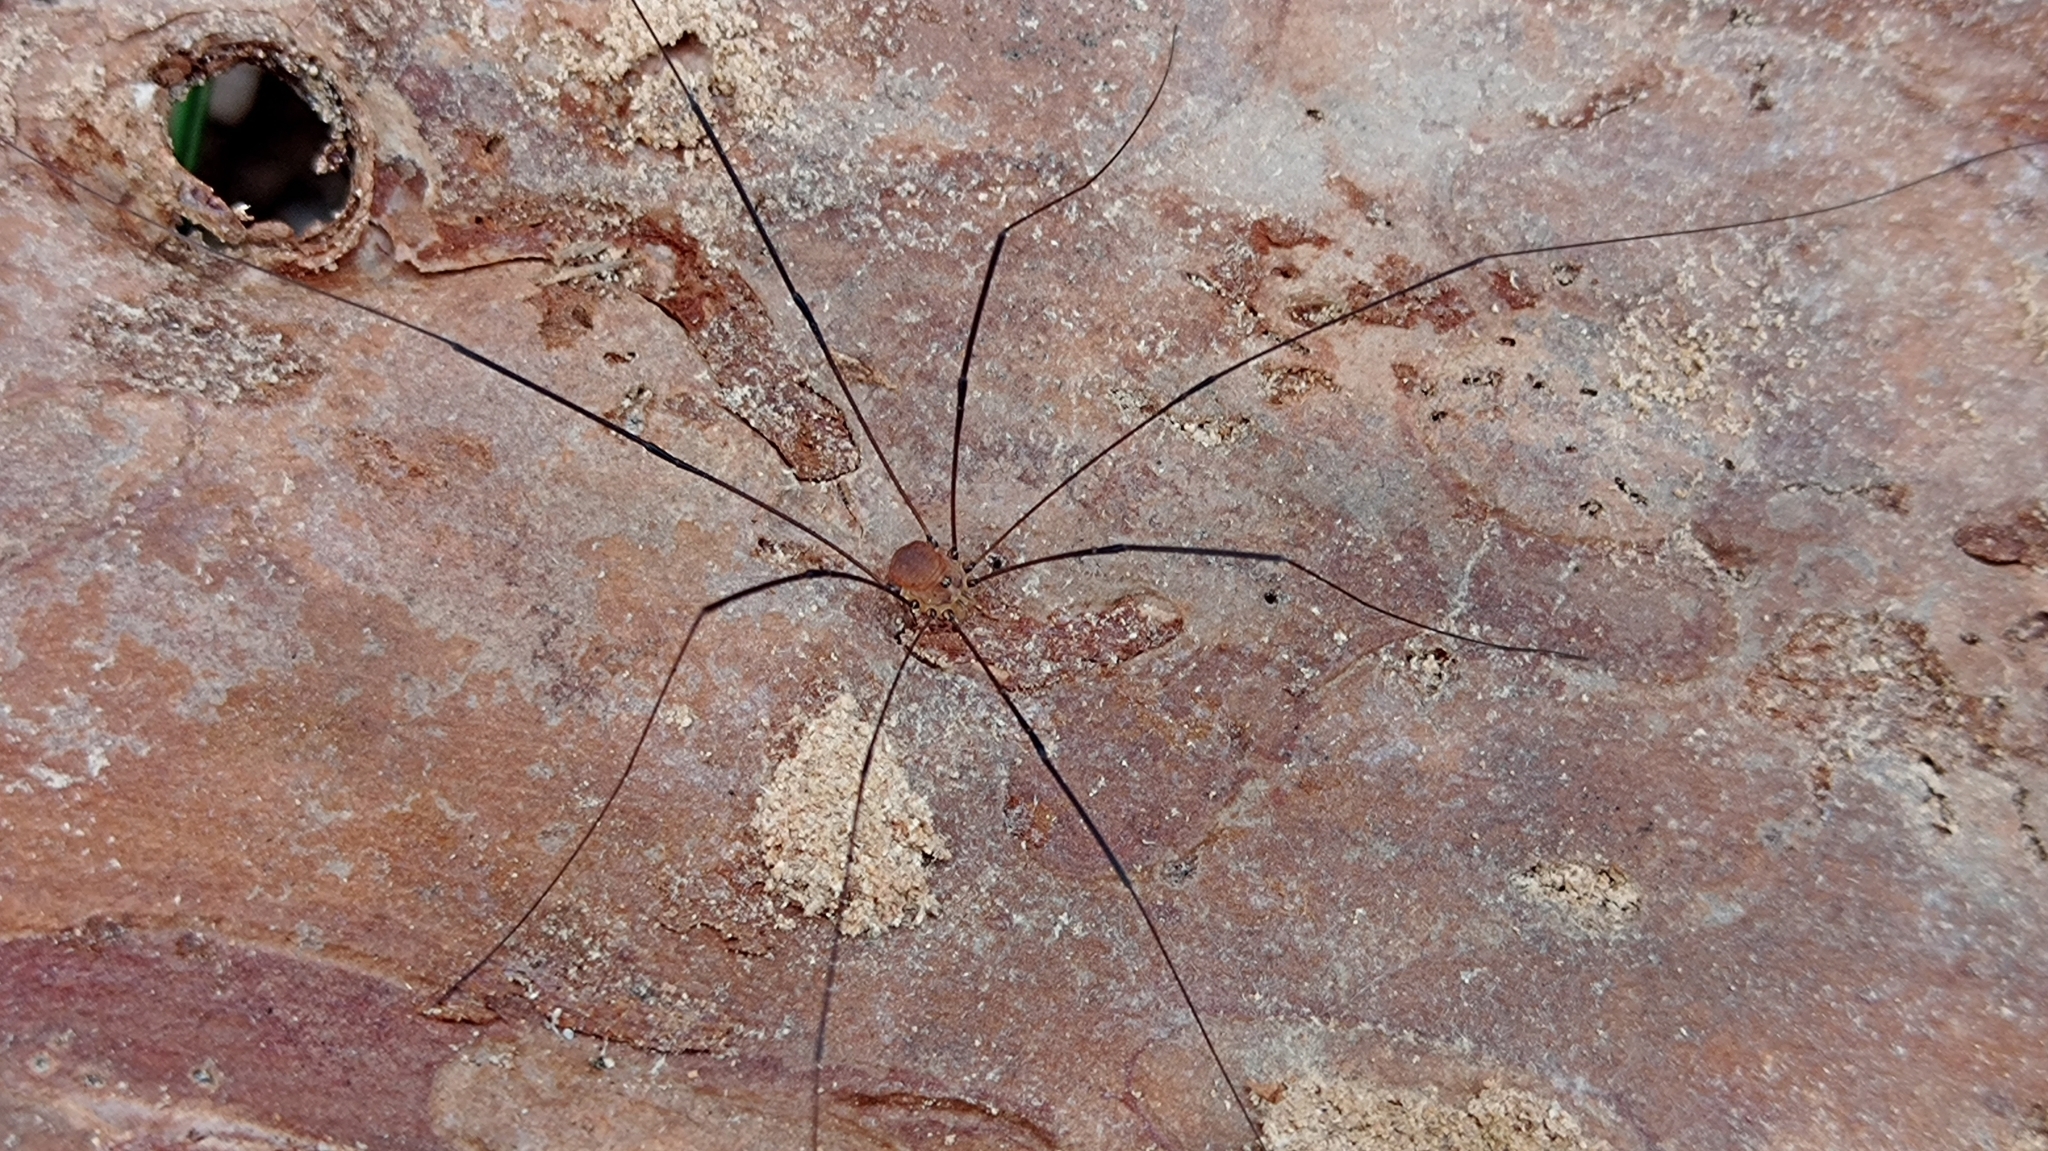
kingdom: Animalia
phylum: Arthropoda
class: Arachnida
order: Opiliones
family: Sclerosomatidae
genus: Leiobunum
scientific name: Leiobunum blackwalli
